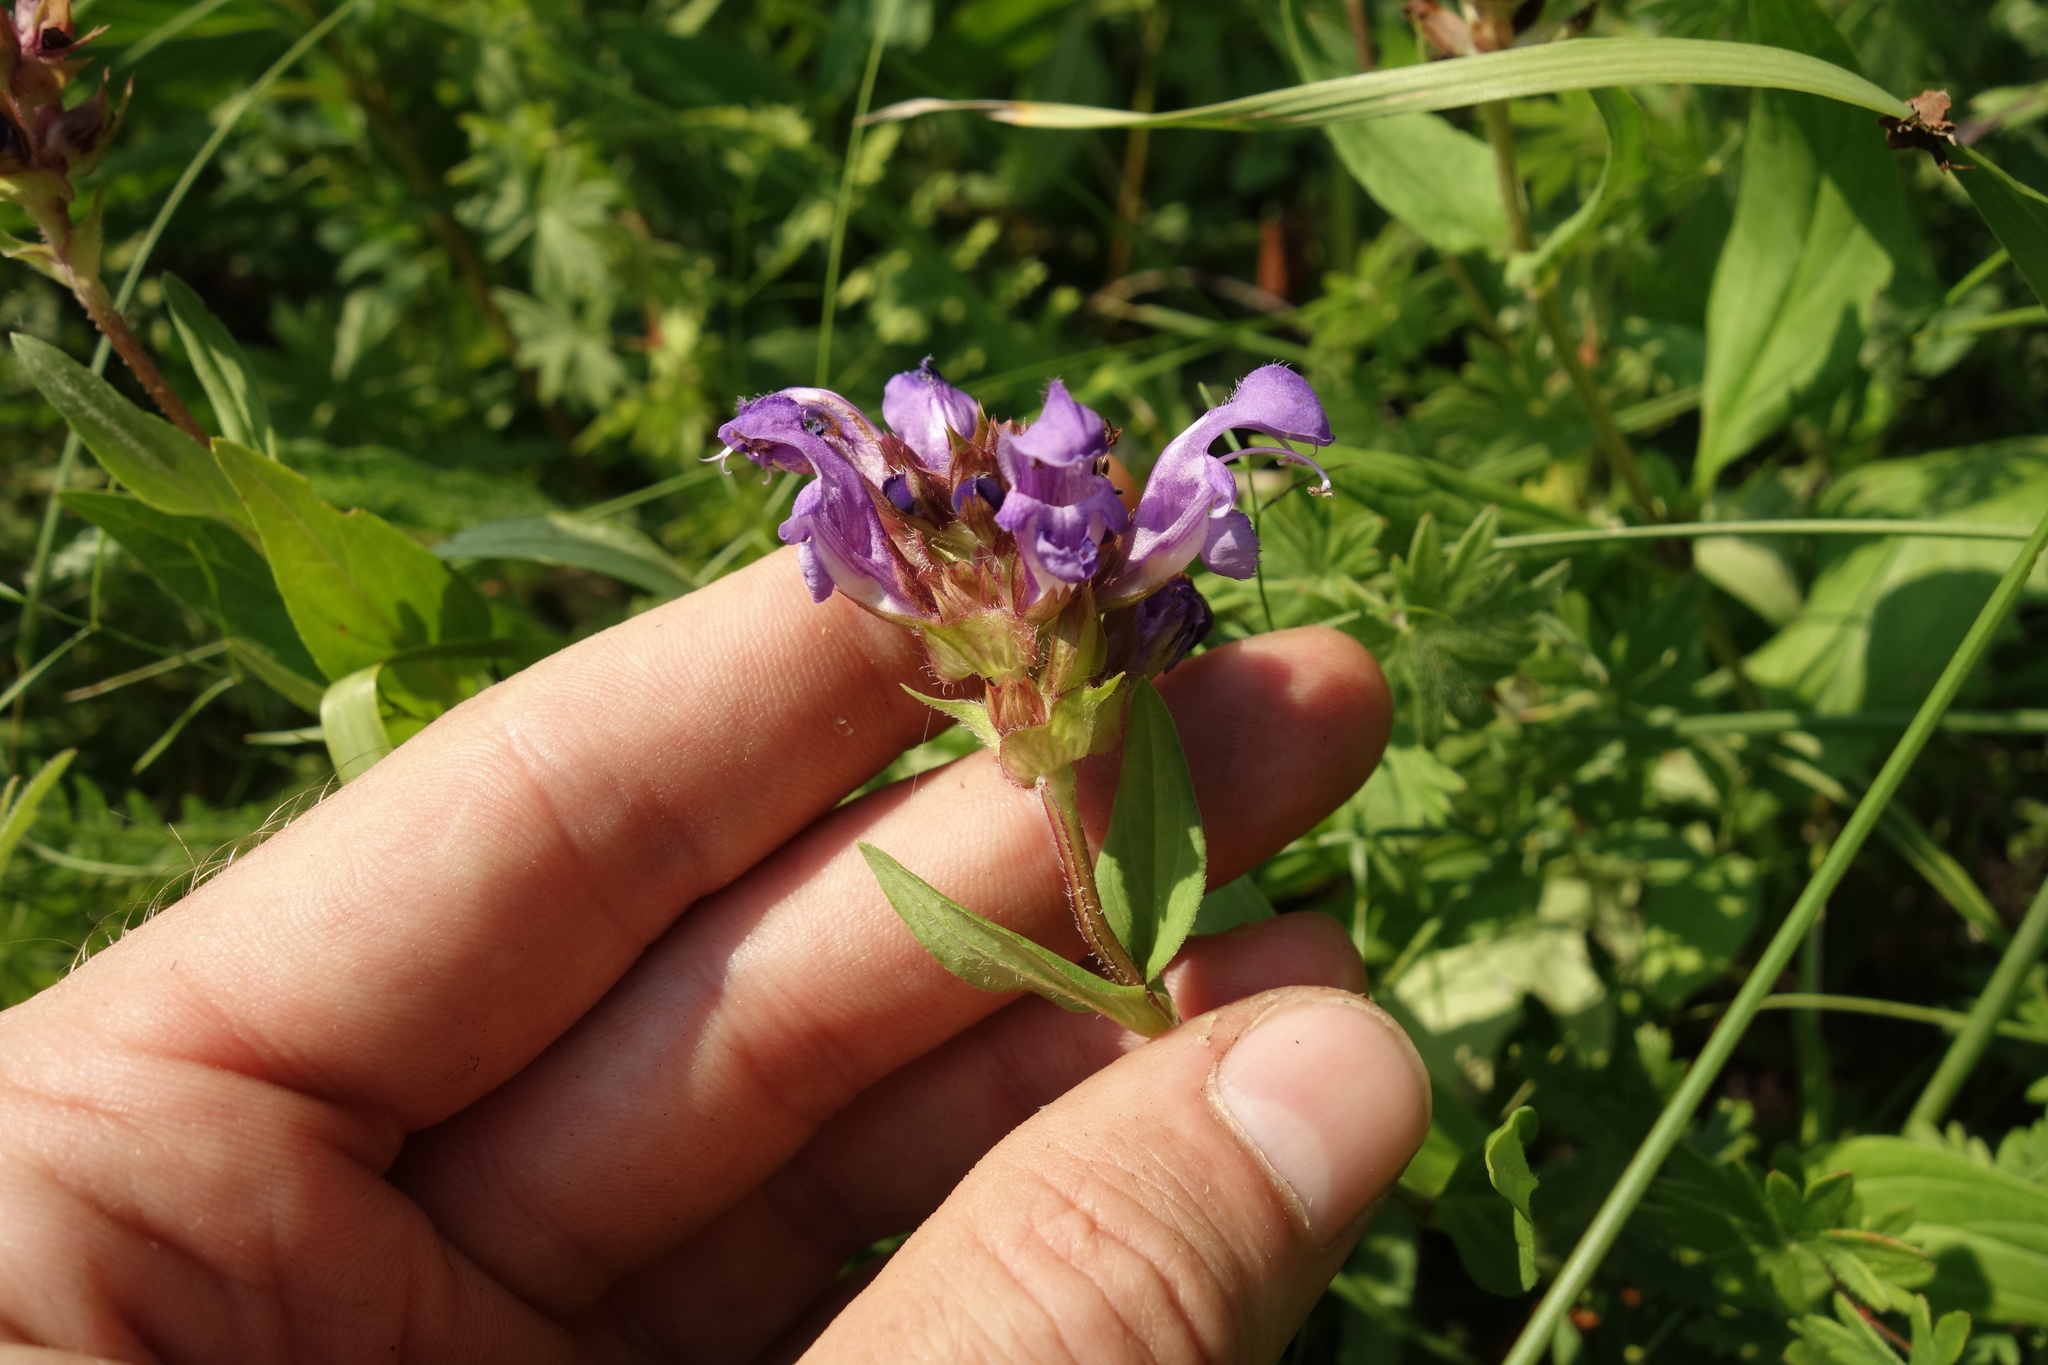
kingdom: Plantae
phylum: Tracheophyta
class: Magnoliopsida
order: Lamiales
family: Lamiaceae
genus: Prunella
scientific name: Prunella grandiflora
